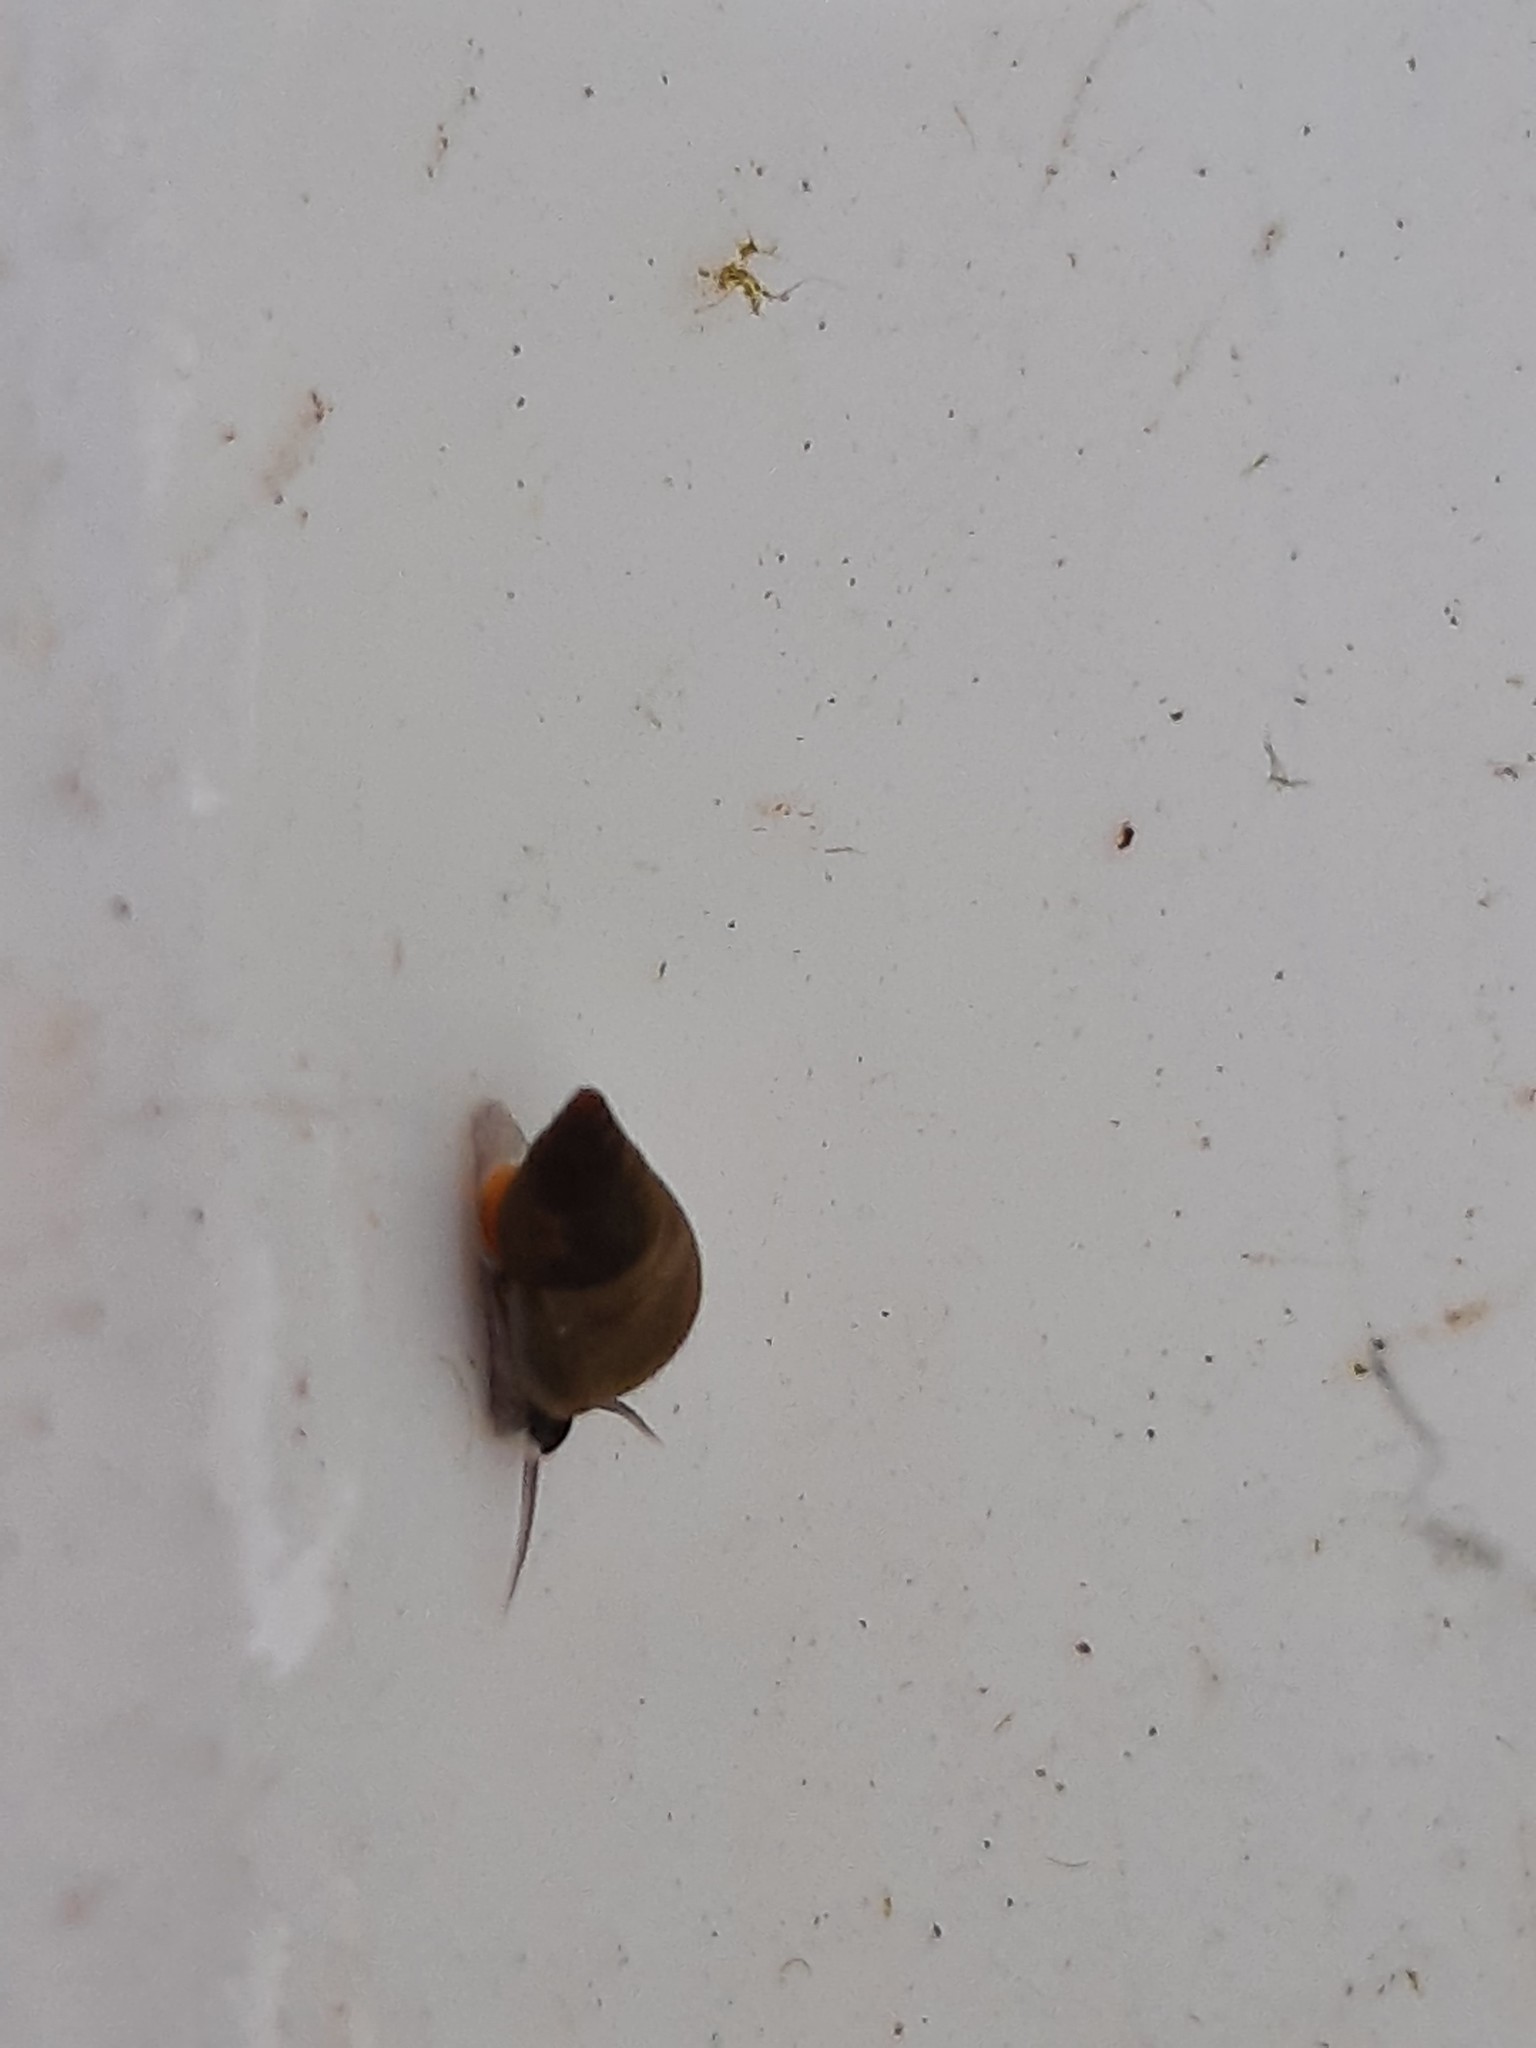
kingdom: Animalia
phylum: Mollusca
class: Gastropoda
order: Littorinimorpha
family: Tateidae
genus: Potamopyrgus
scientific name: Potamopyrgus antipodarum
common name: Jenkins' spire snail
